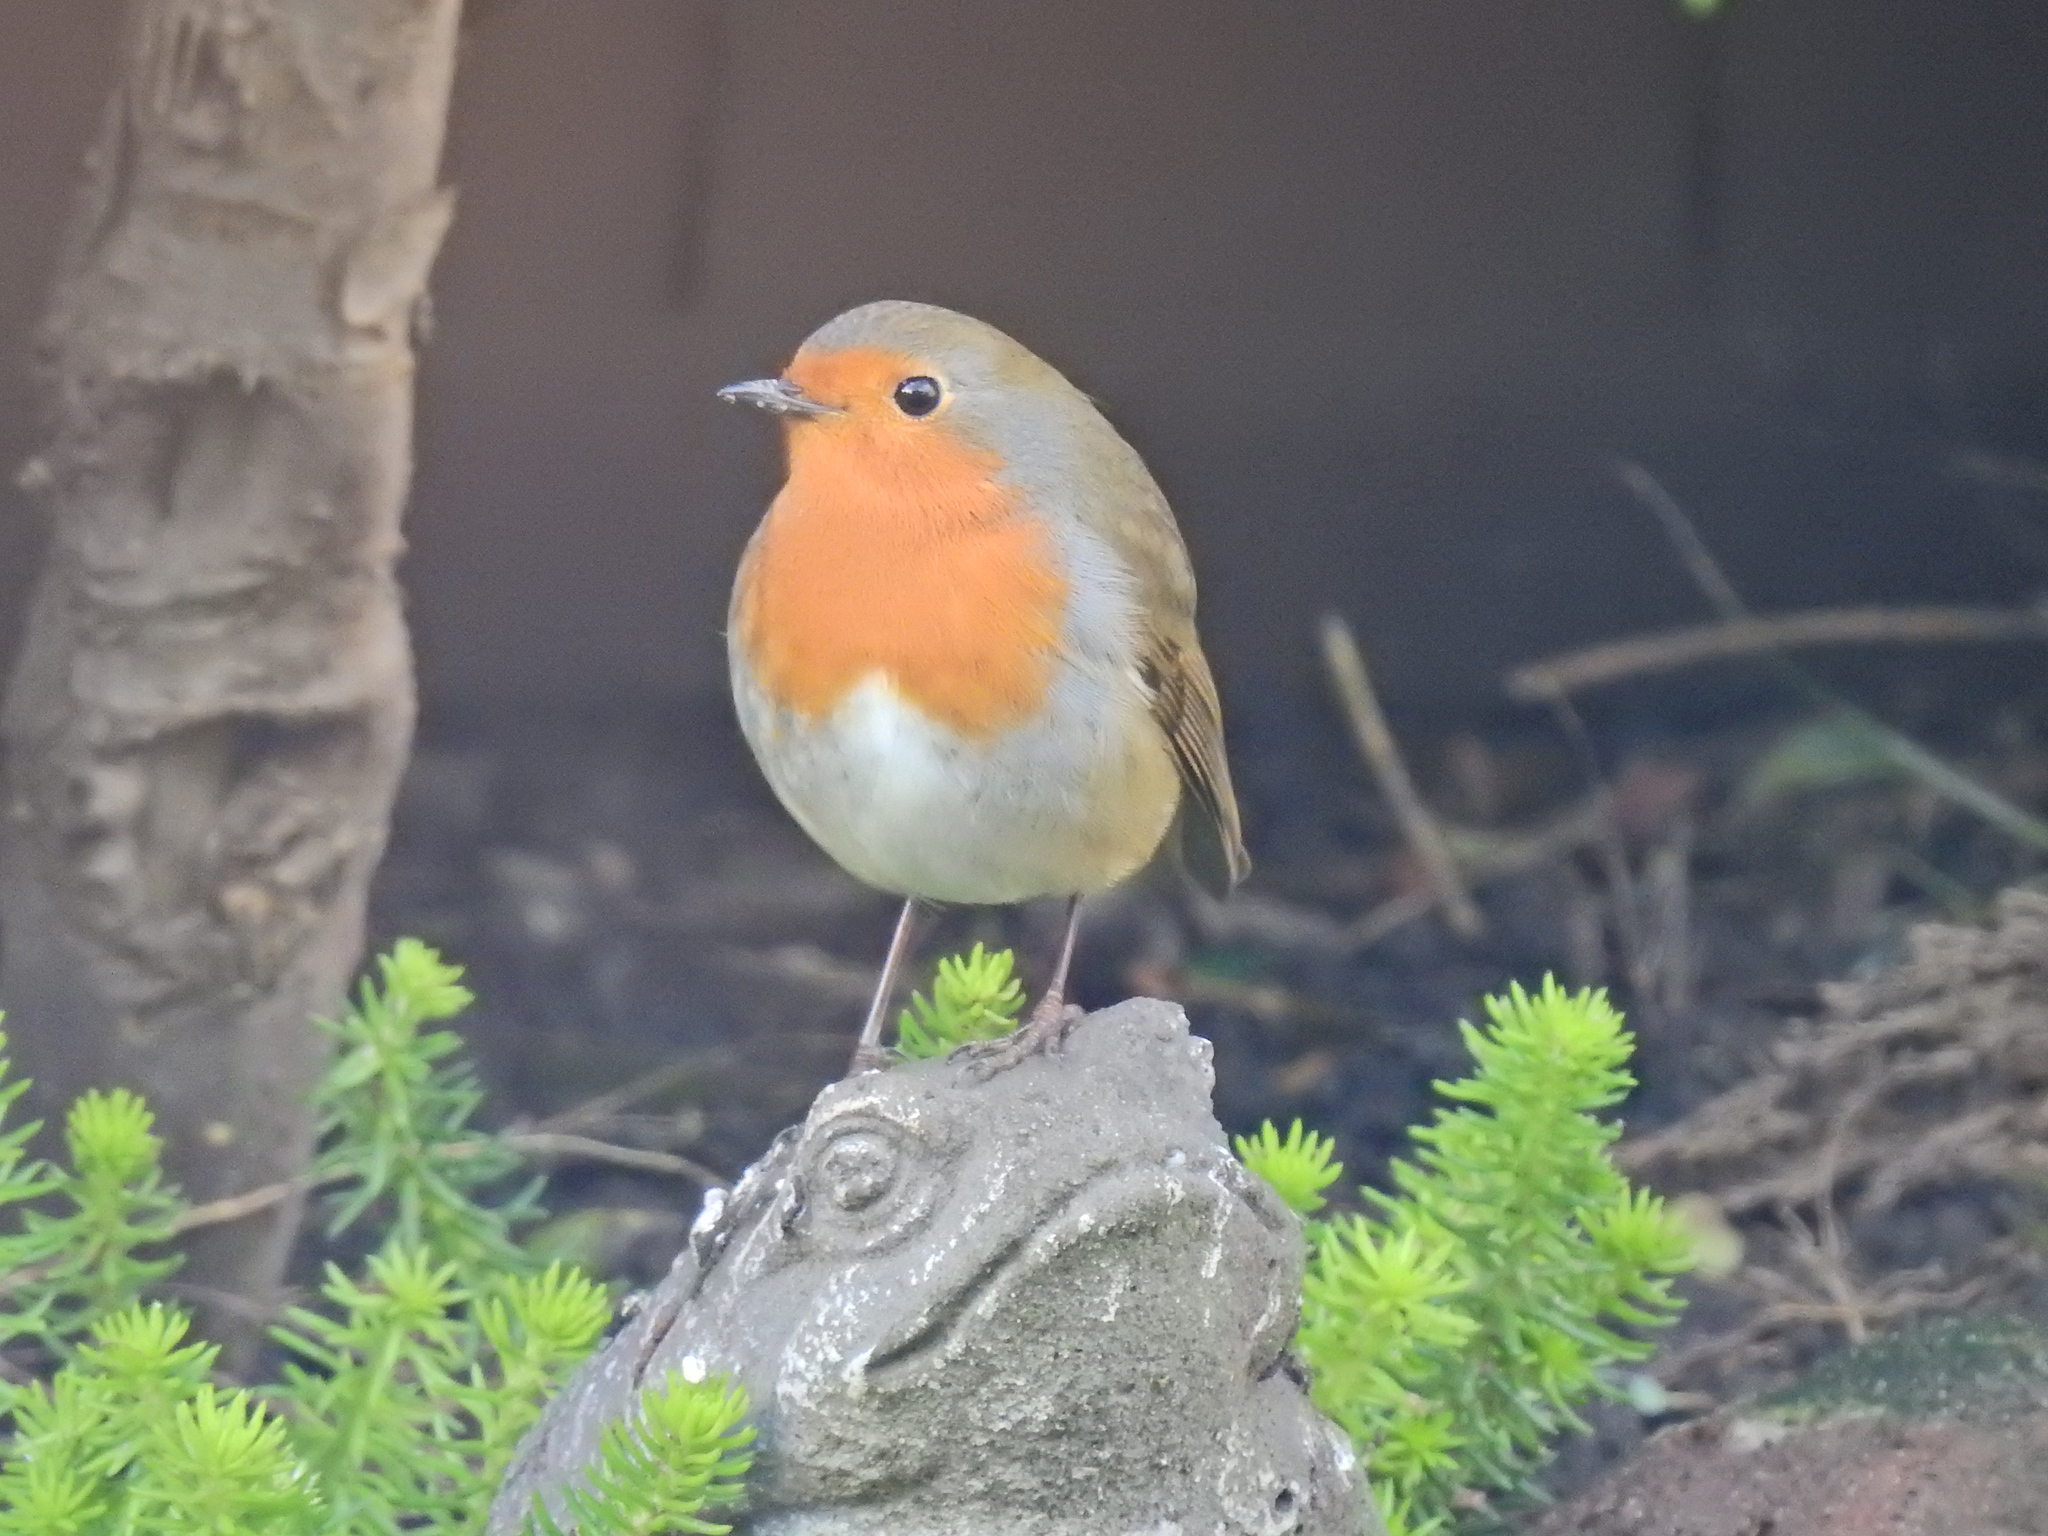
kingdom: Animalia
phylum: Chordata
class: Aves
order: Passeriformes
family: Muscicapidae
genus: Erithacus
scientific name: Erithacus rubecula
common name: European robin
